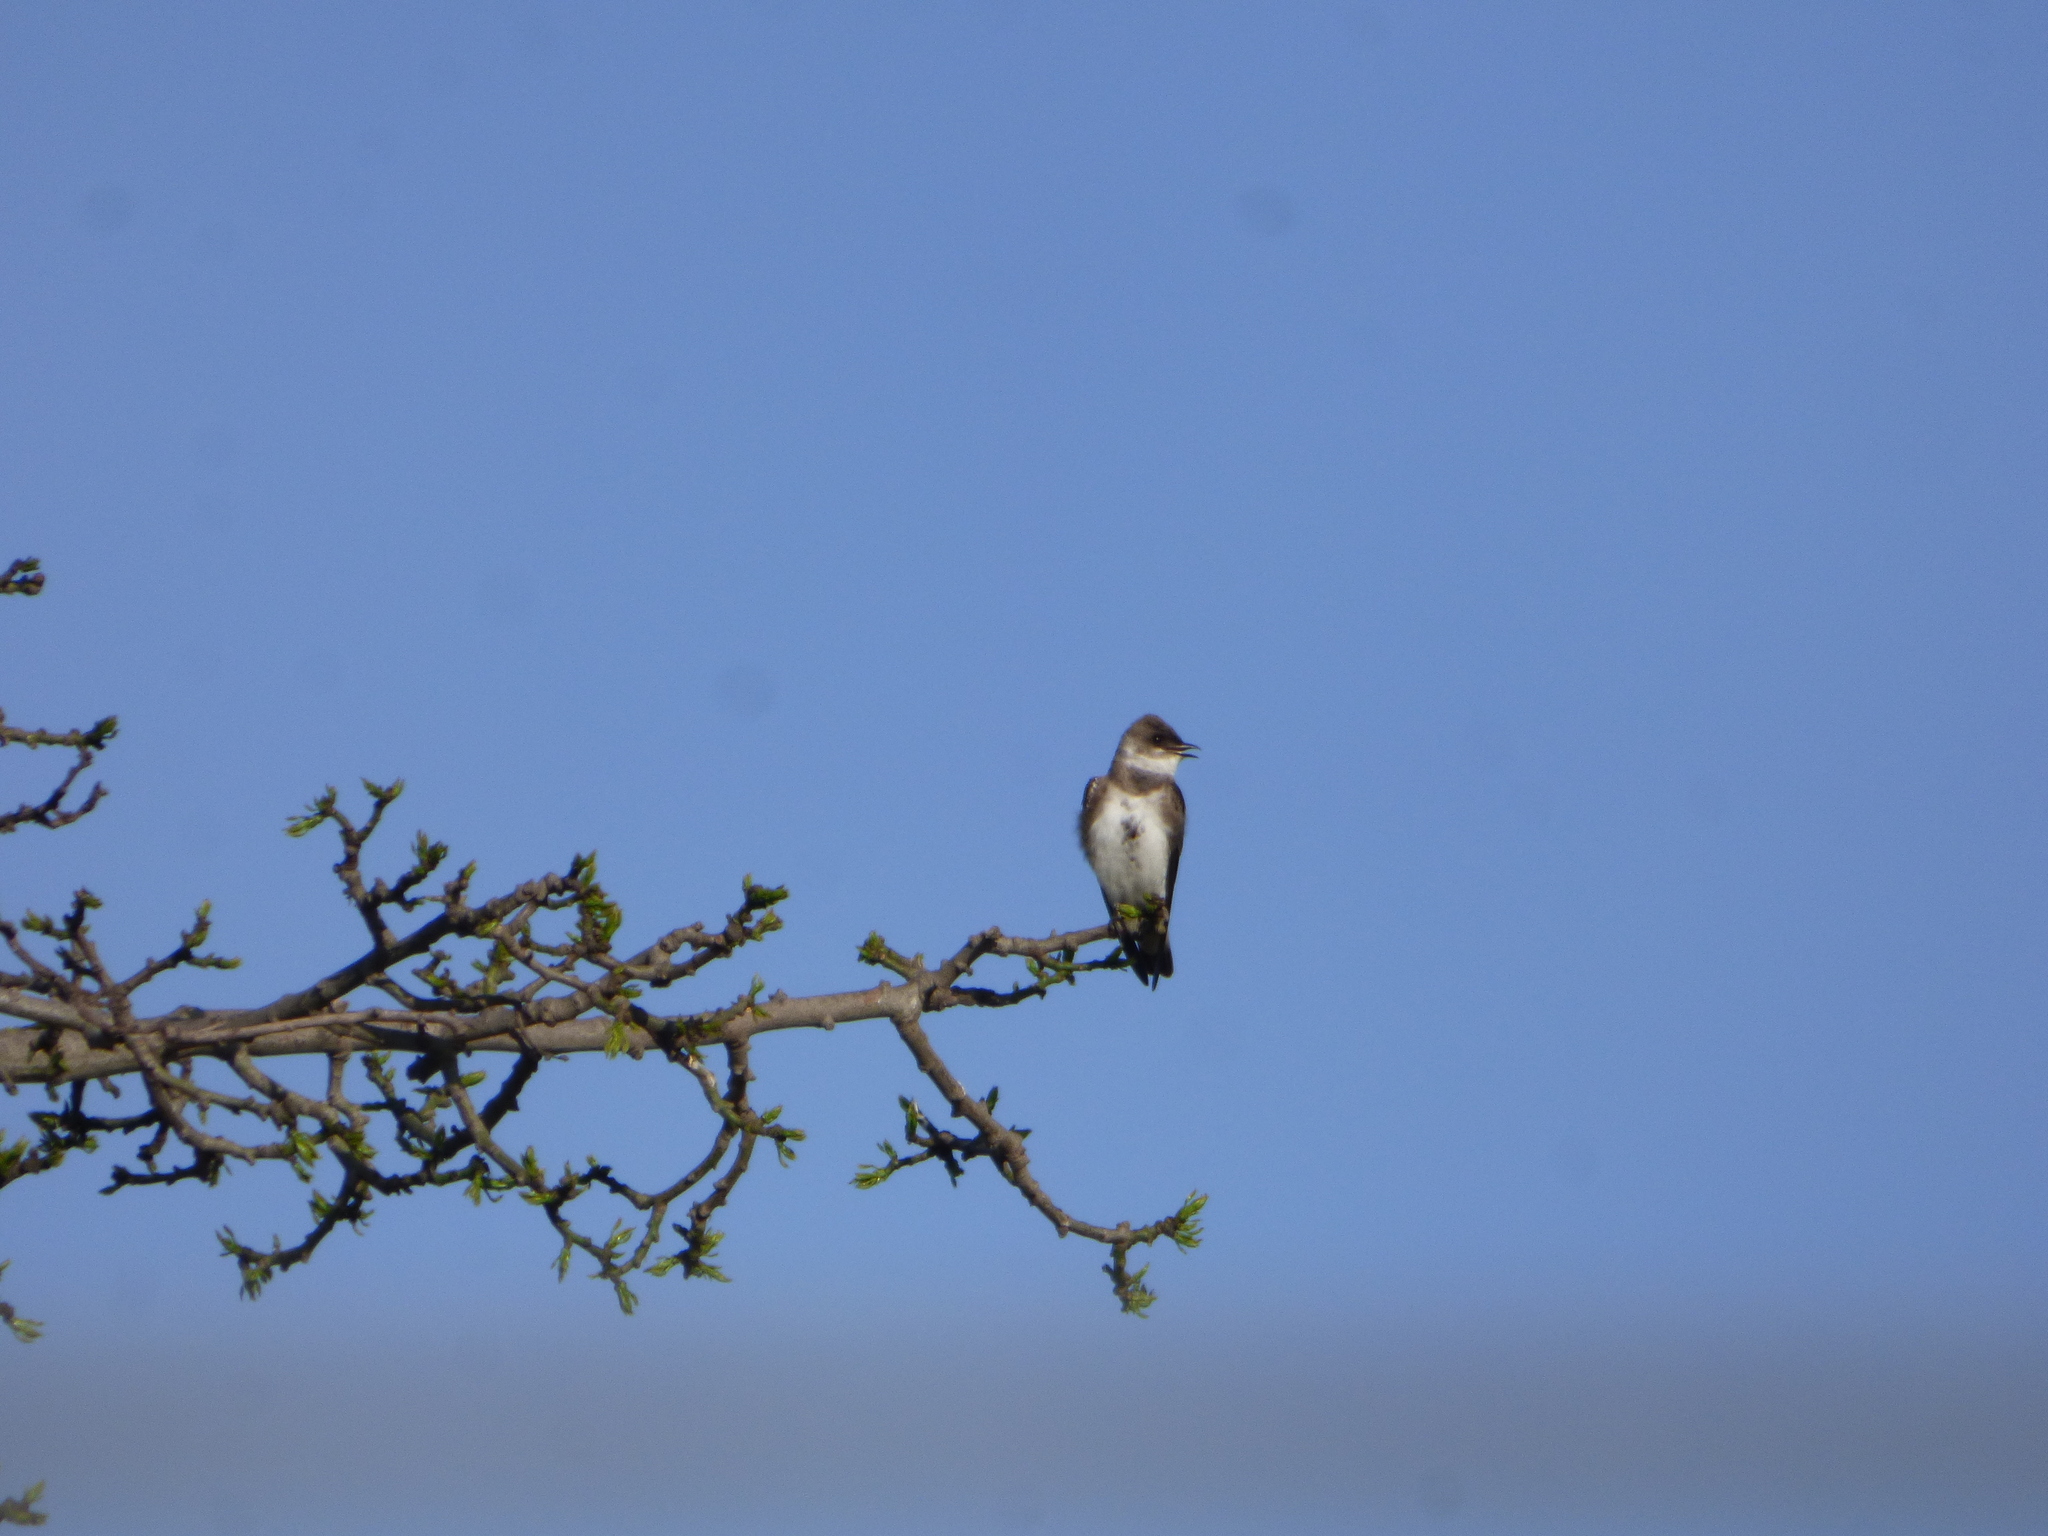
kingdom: Animalia
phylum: Chordata
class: Aves
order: Passeriformes
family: Hirundinidae
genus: Progne
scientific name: Progne tapera
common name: Brown-chested martin
